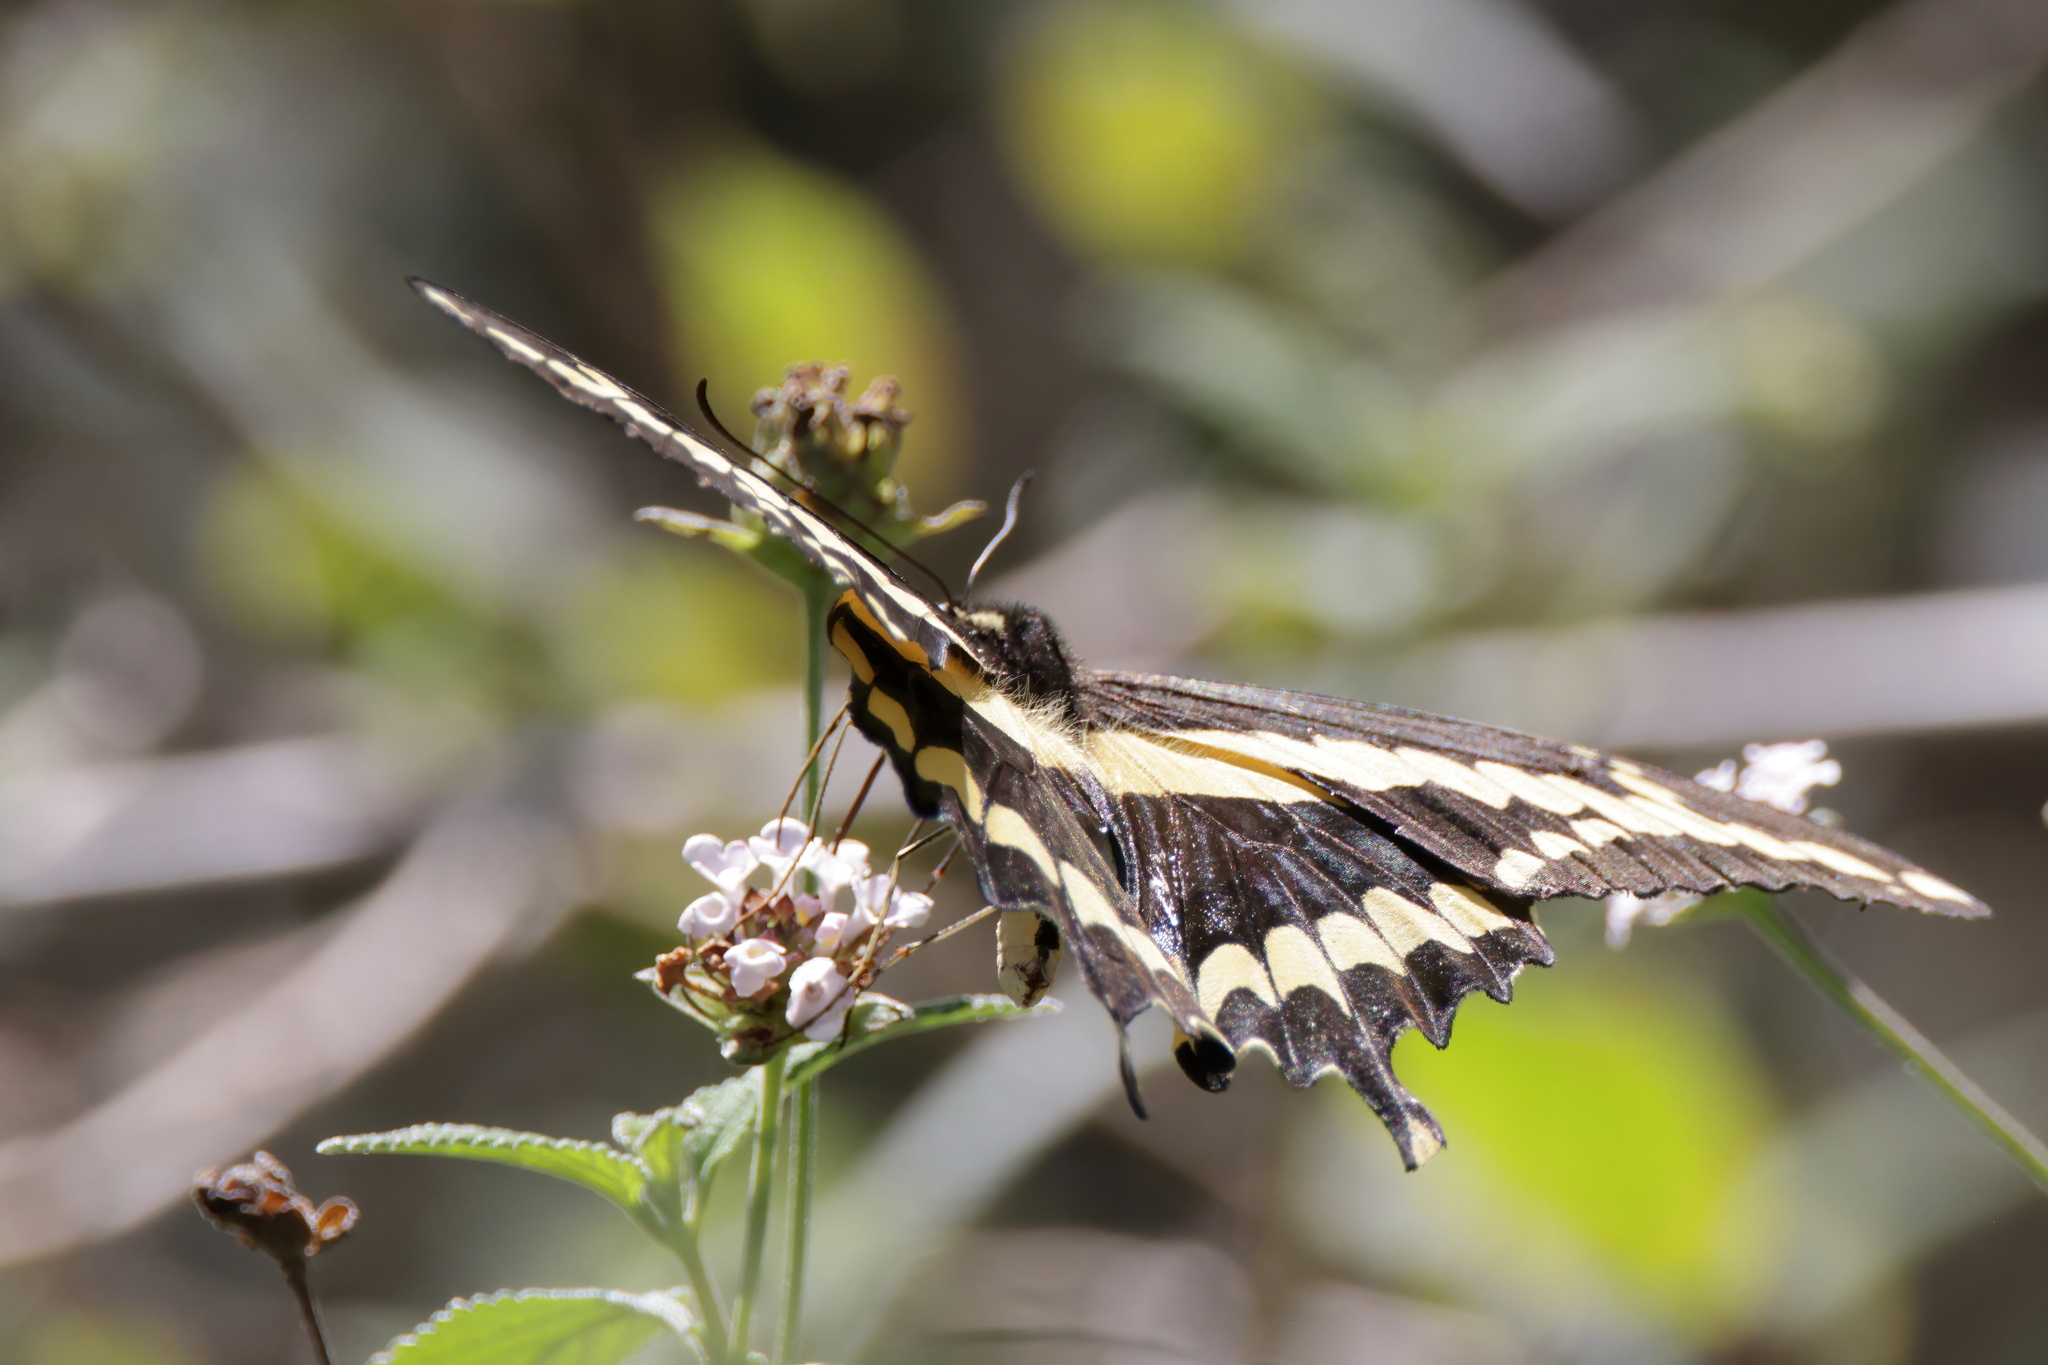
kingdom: Animalia
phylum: Arthropoda
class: Insecta
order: Lepidoptera
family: Papilionidae
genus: Papilio
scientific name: Papilio rumiko
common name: Western giant swallowtail
